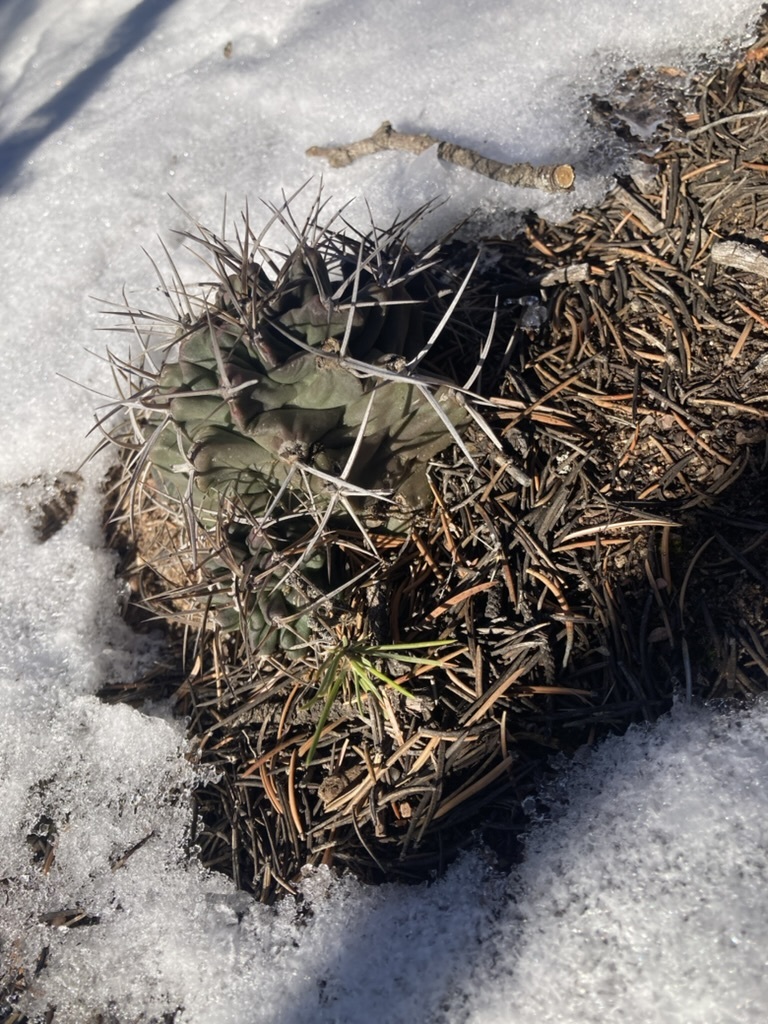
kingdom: Plantae
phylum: Tracheophyta
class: Magnoliopsida
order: Caryophyllales
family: Cactaceae
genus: Echinocereus
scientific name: Echinocereus triglochidiatus
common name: Claretcup hedgehog
